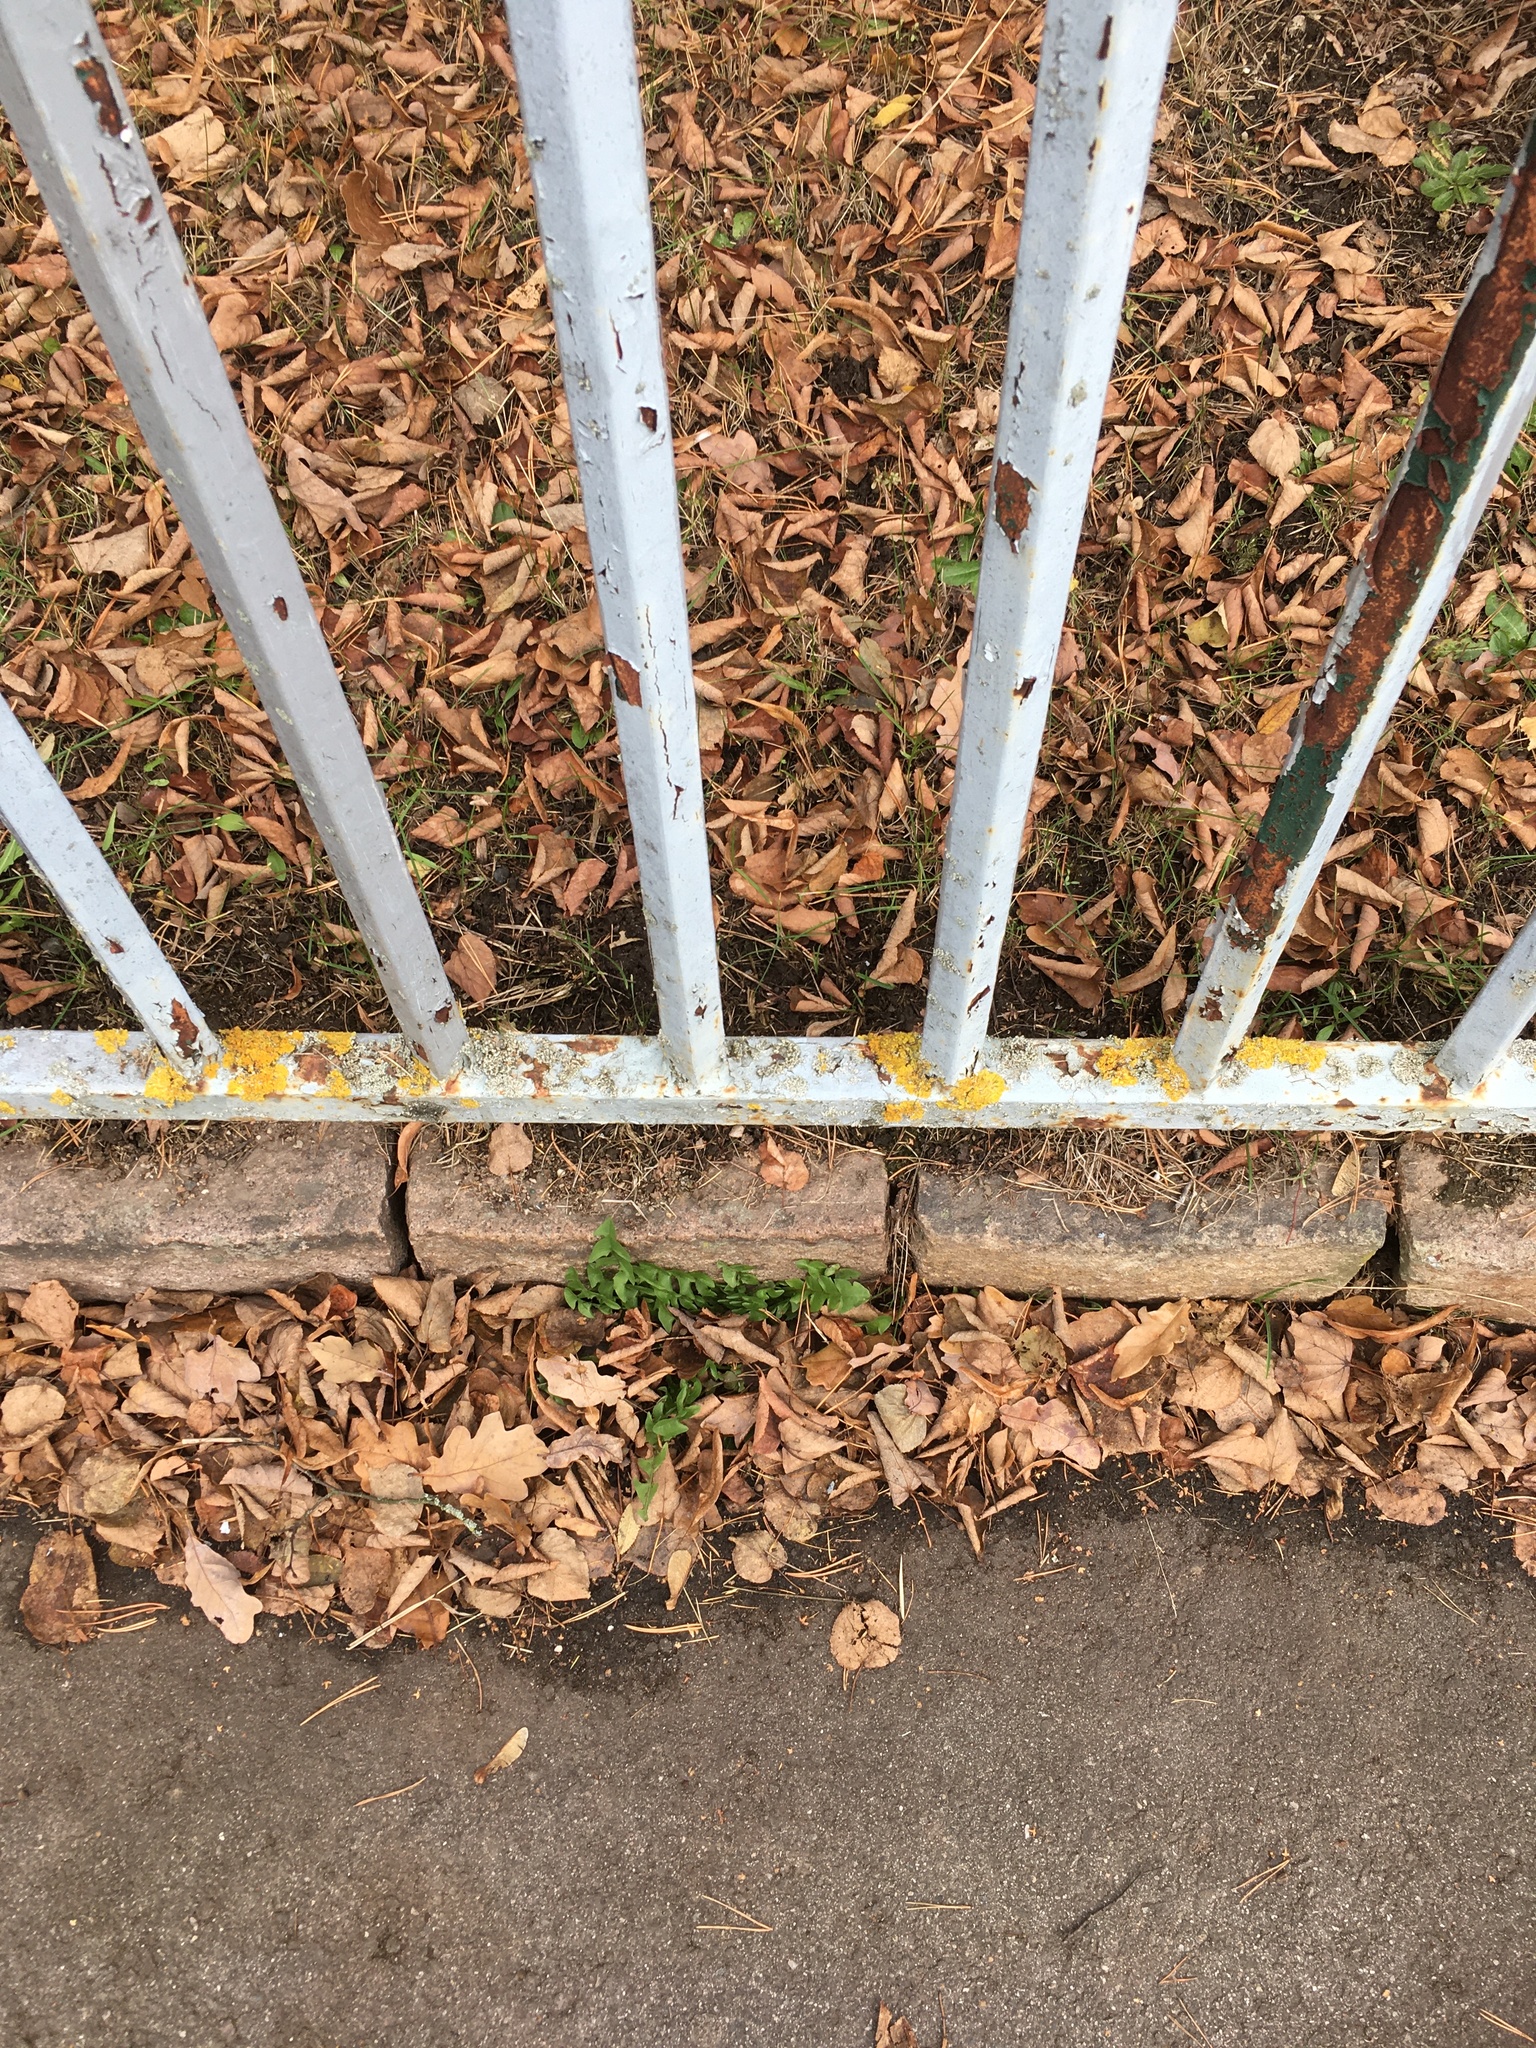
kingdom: Fungi
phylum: Ascomycota
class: Lecanoromycetes
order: Teloschistales
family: Teloschistaceae
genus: Xanthoria
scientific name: Xanthoria parietina
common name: Common orange lichen
